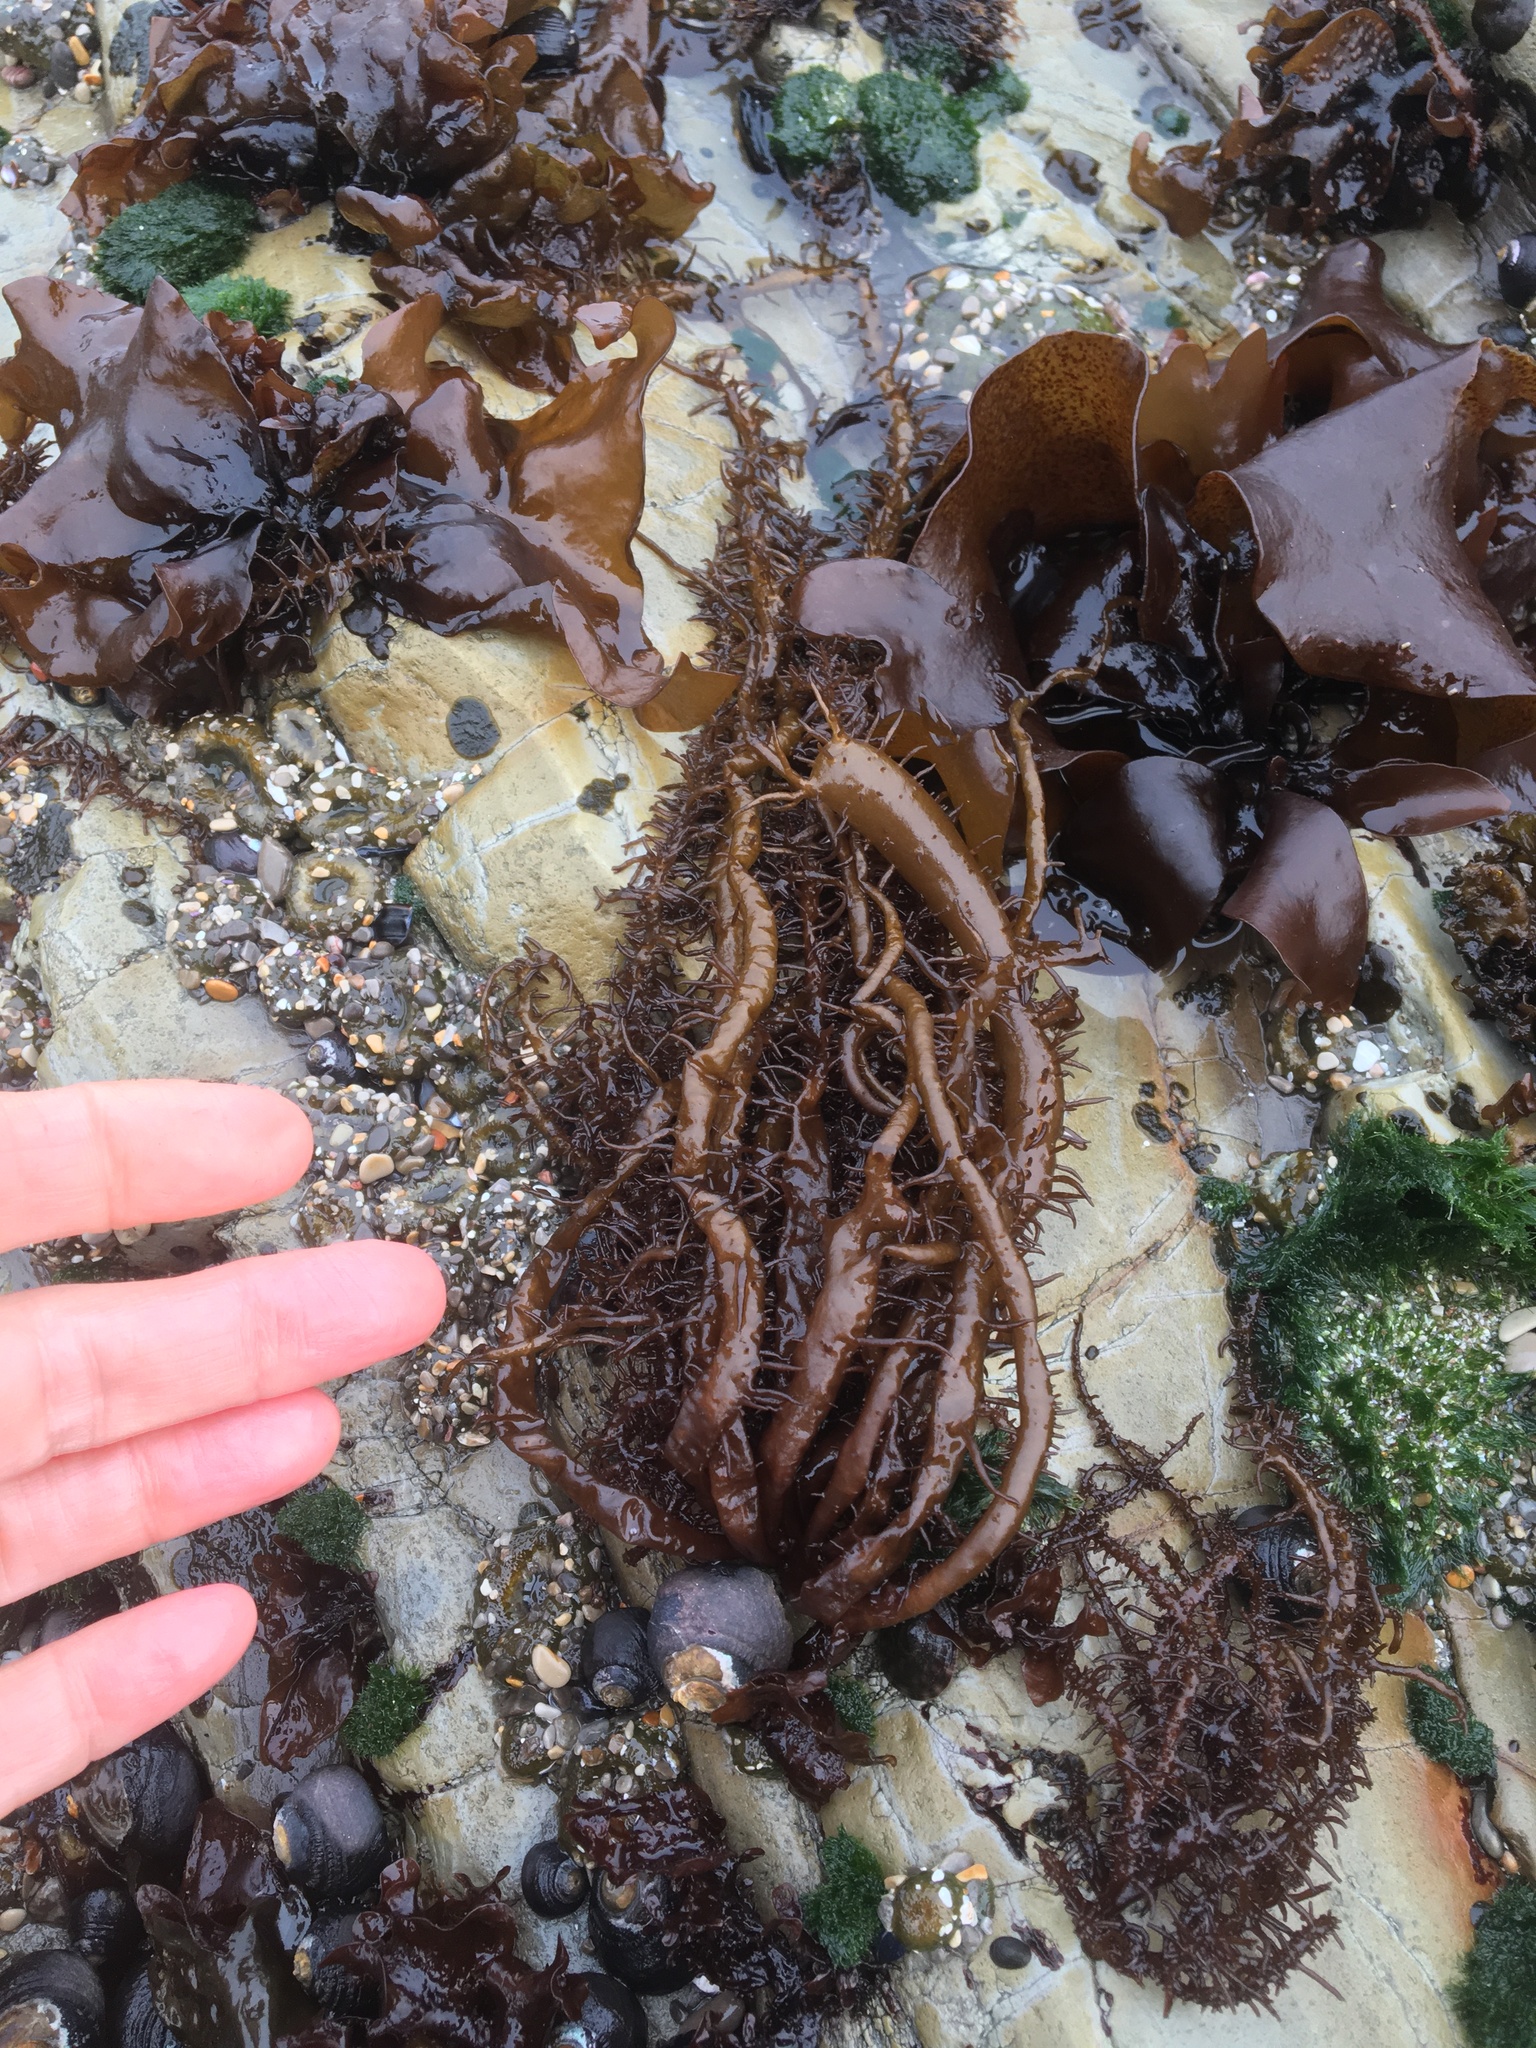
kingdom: Plantae
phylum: Rhodophyta
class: Florideophyceae
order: Nemaliales
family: Liagoraceae
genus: Cumagloia
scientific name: Cumagloia andersonii
